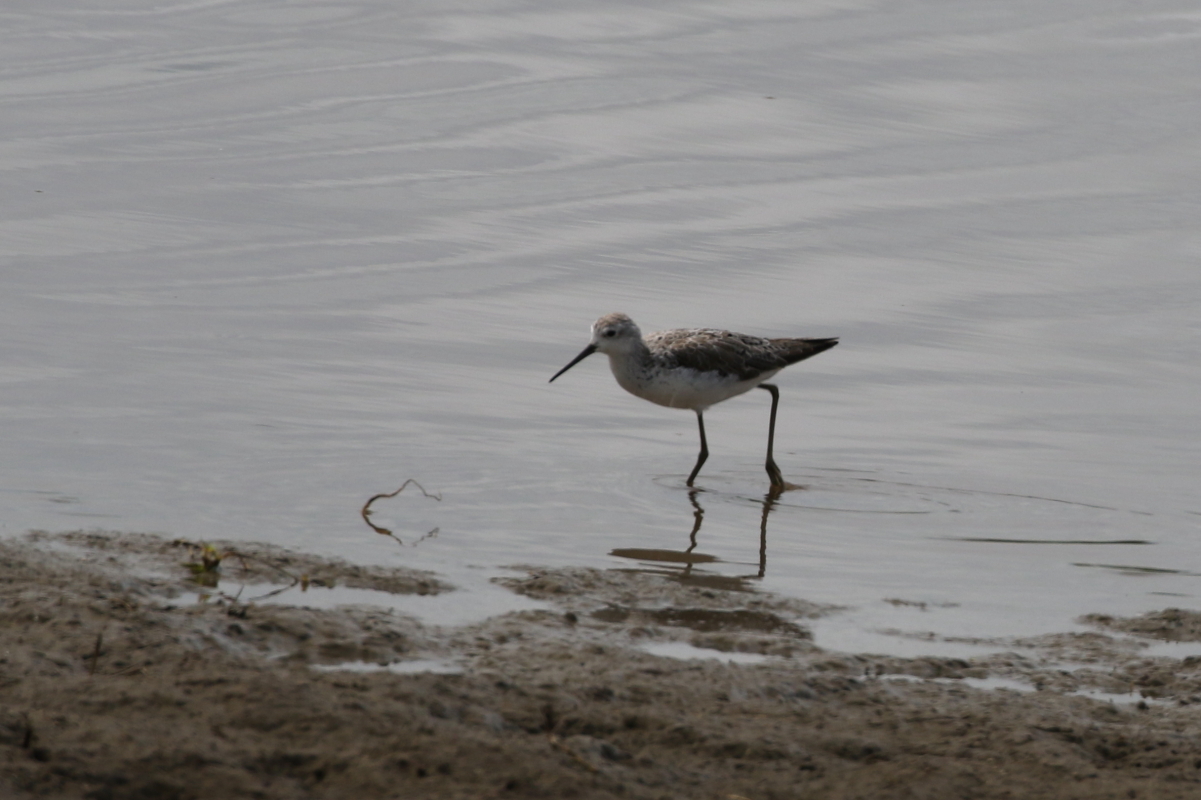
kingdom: Animalia
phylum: Chordata
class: Aves
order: Charadriiformes
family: Scolopacidae
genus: Tringa
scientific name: Tringa stagnatilis
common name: Marsh sandpiper
